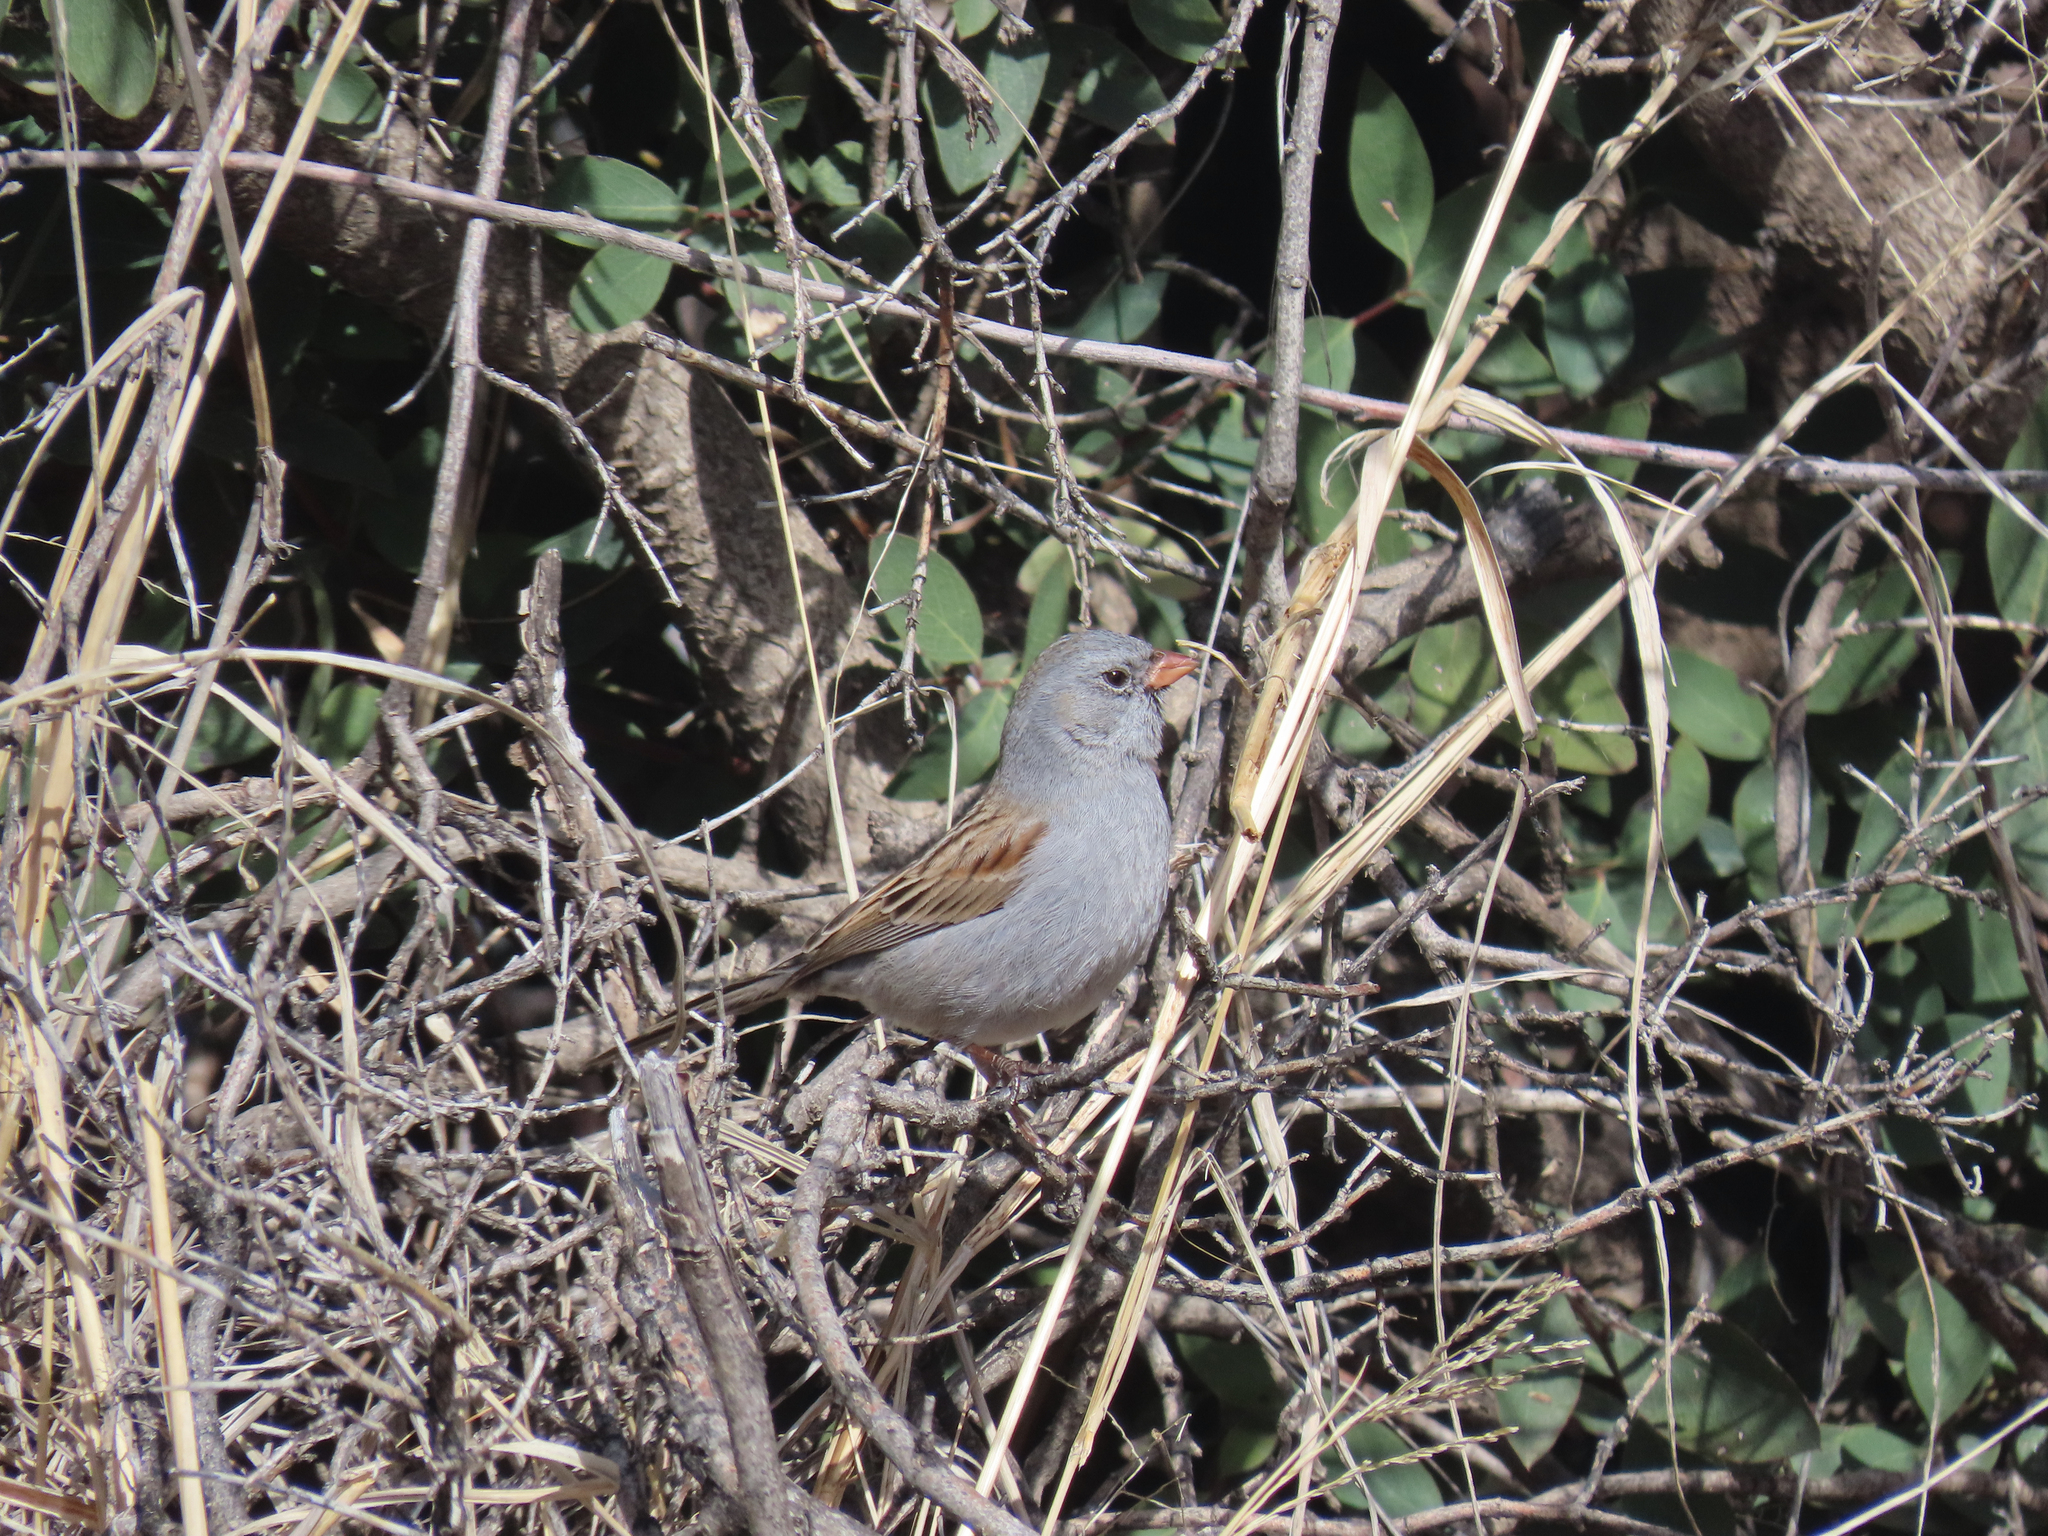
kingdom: Animalia
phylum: Chordata
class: Aves
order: Passeriformes
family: Passerellidae
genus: Spizella
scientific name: Spizella atrogularis
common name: Black-chinned sparrow
